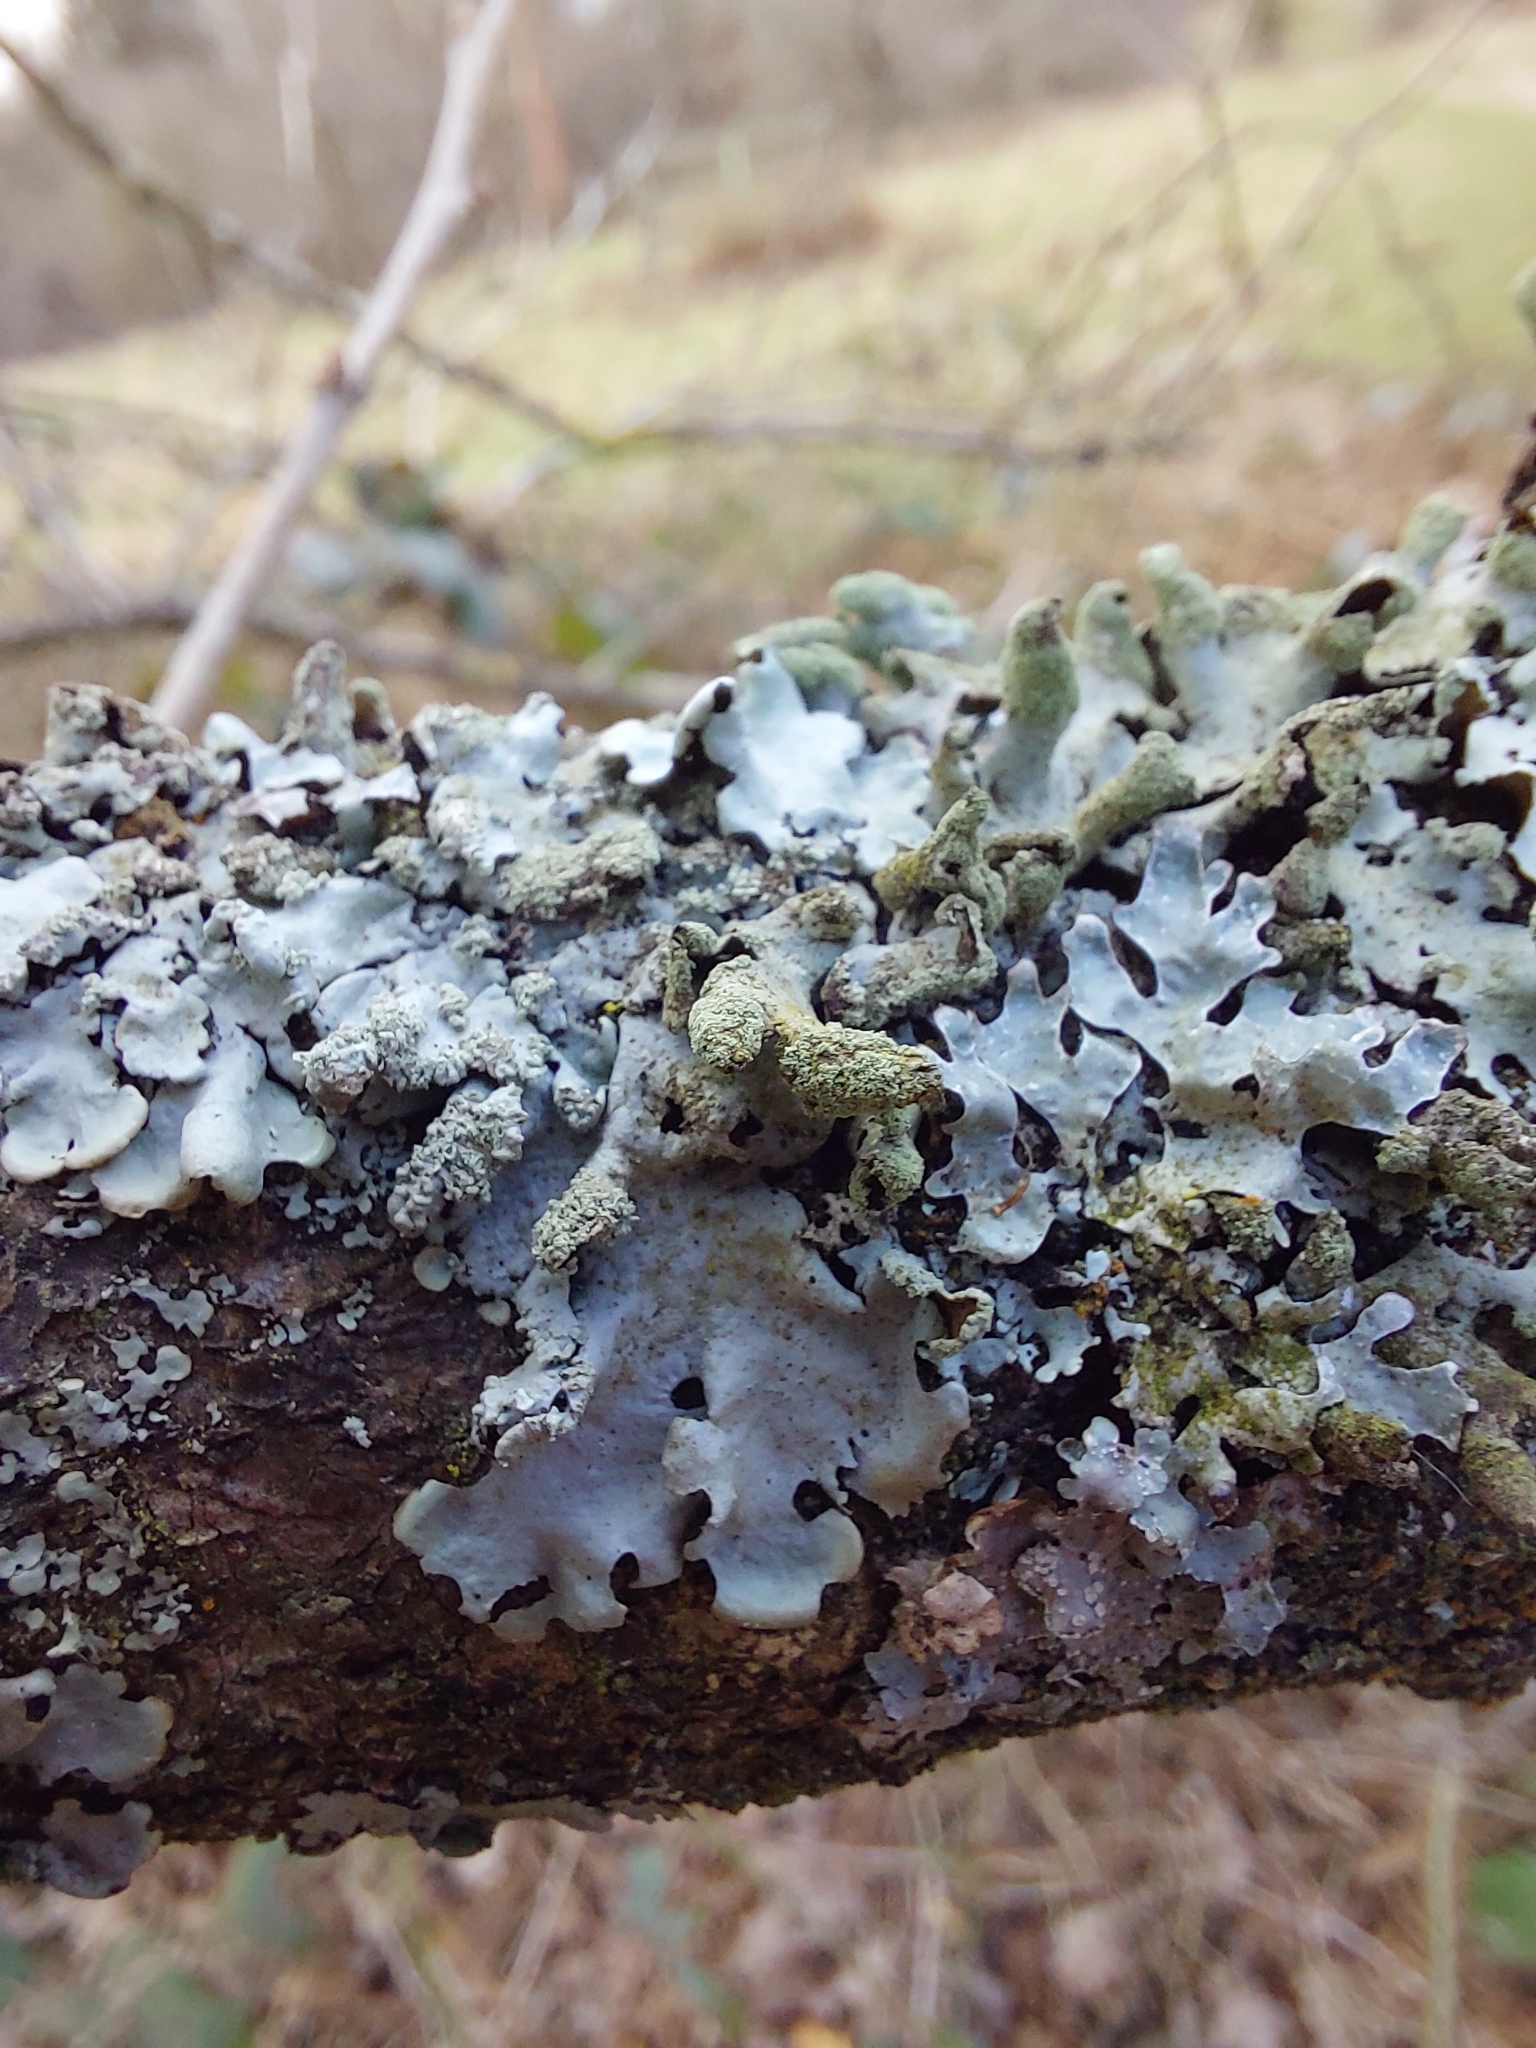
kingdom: Fungi
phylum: Ascomycota
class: Lecanoromycetes
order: Lecanorales
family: Parmeliaceae
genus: Hypotrachyna
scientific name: Hypotrachyna revoluta
